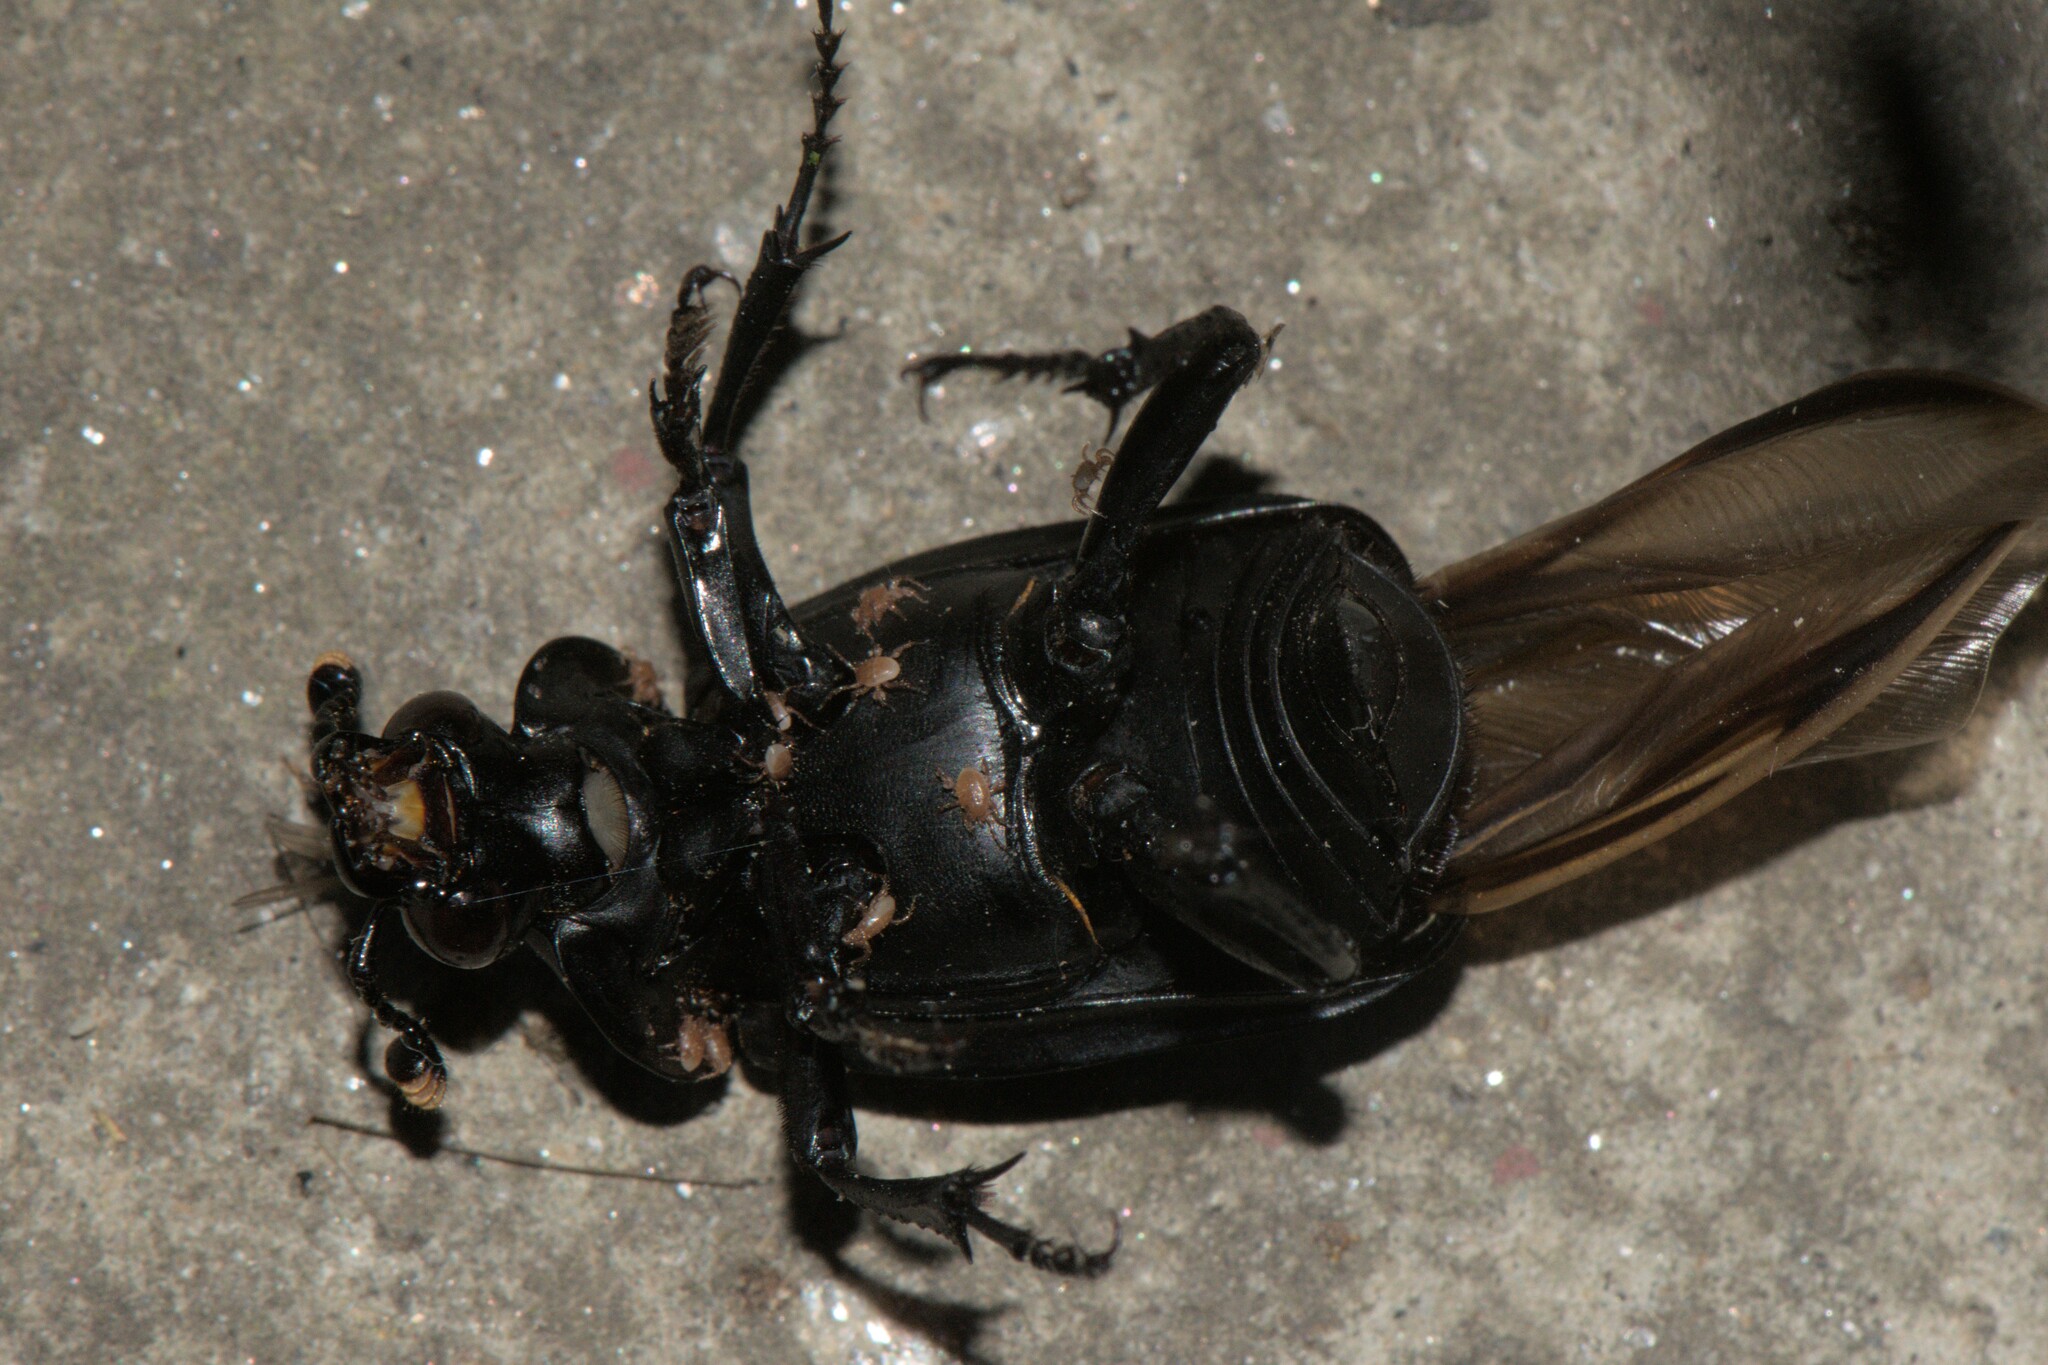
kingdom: Animalia
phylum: Arthropoda
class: Insecta
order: Coleoptera
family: Staphylinidae
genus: Nicrophorus
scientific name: Nicrophorus concolor
